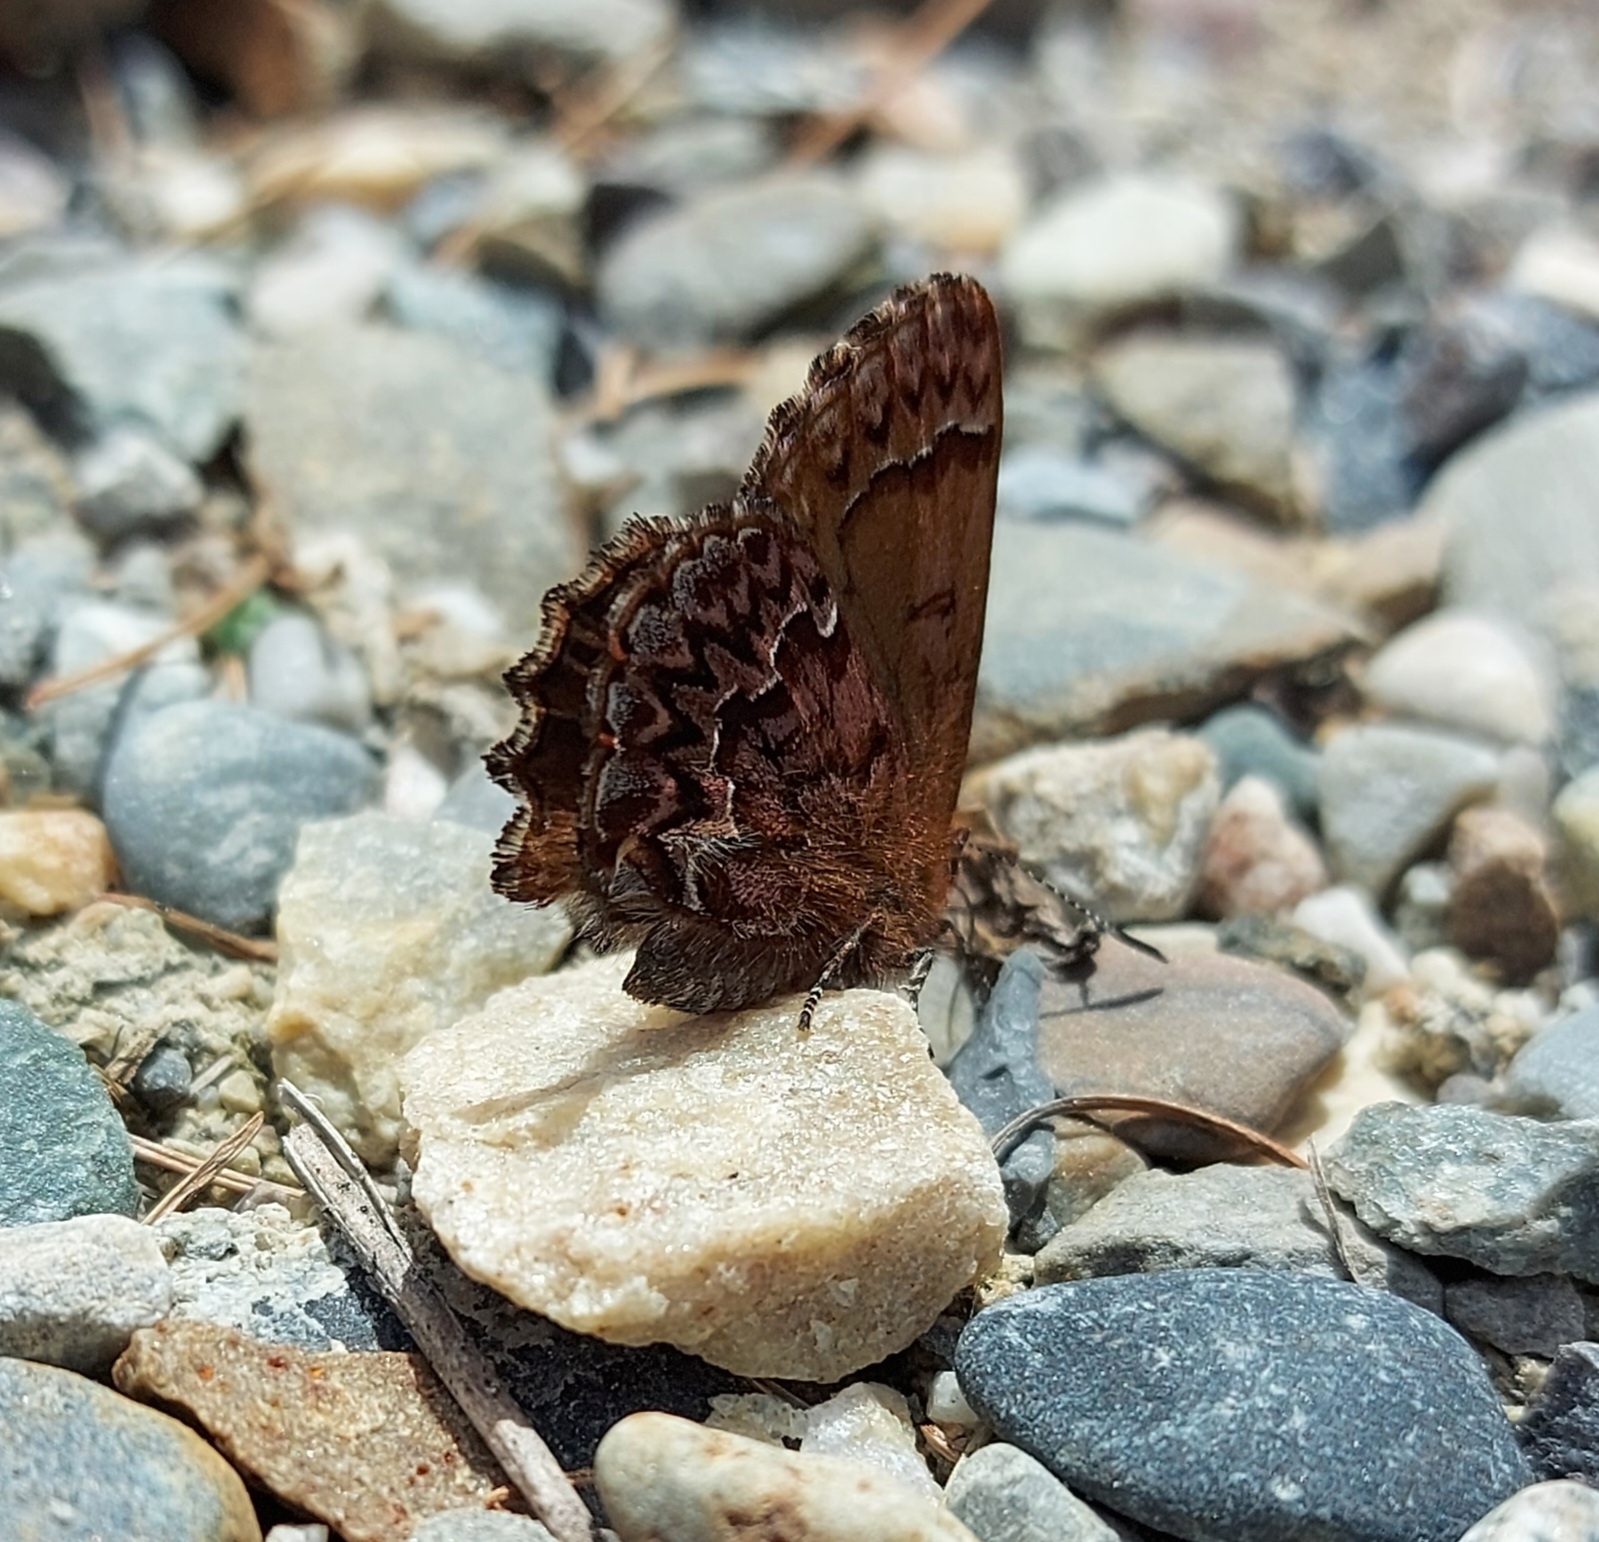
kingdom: Animalia
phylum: Arthropoda
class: Insecta
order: Lepidoptera
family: Lycaenidae
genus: Incisalia
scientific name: Incisalia eryphon
